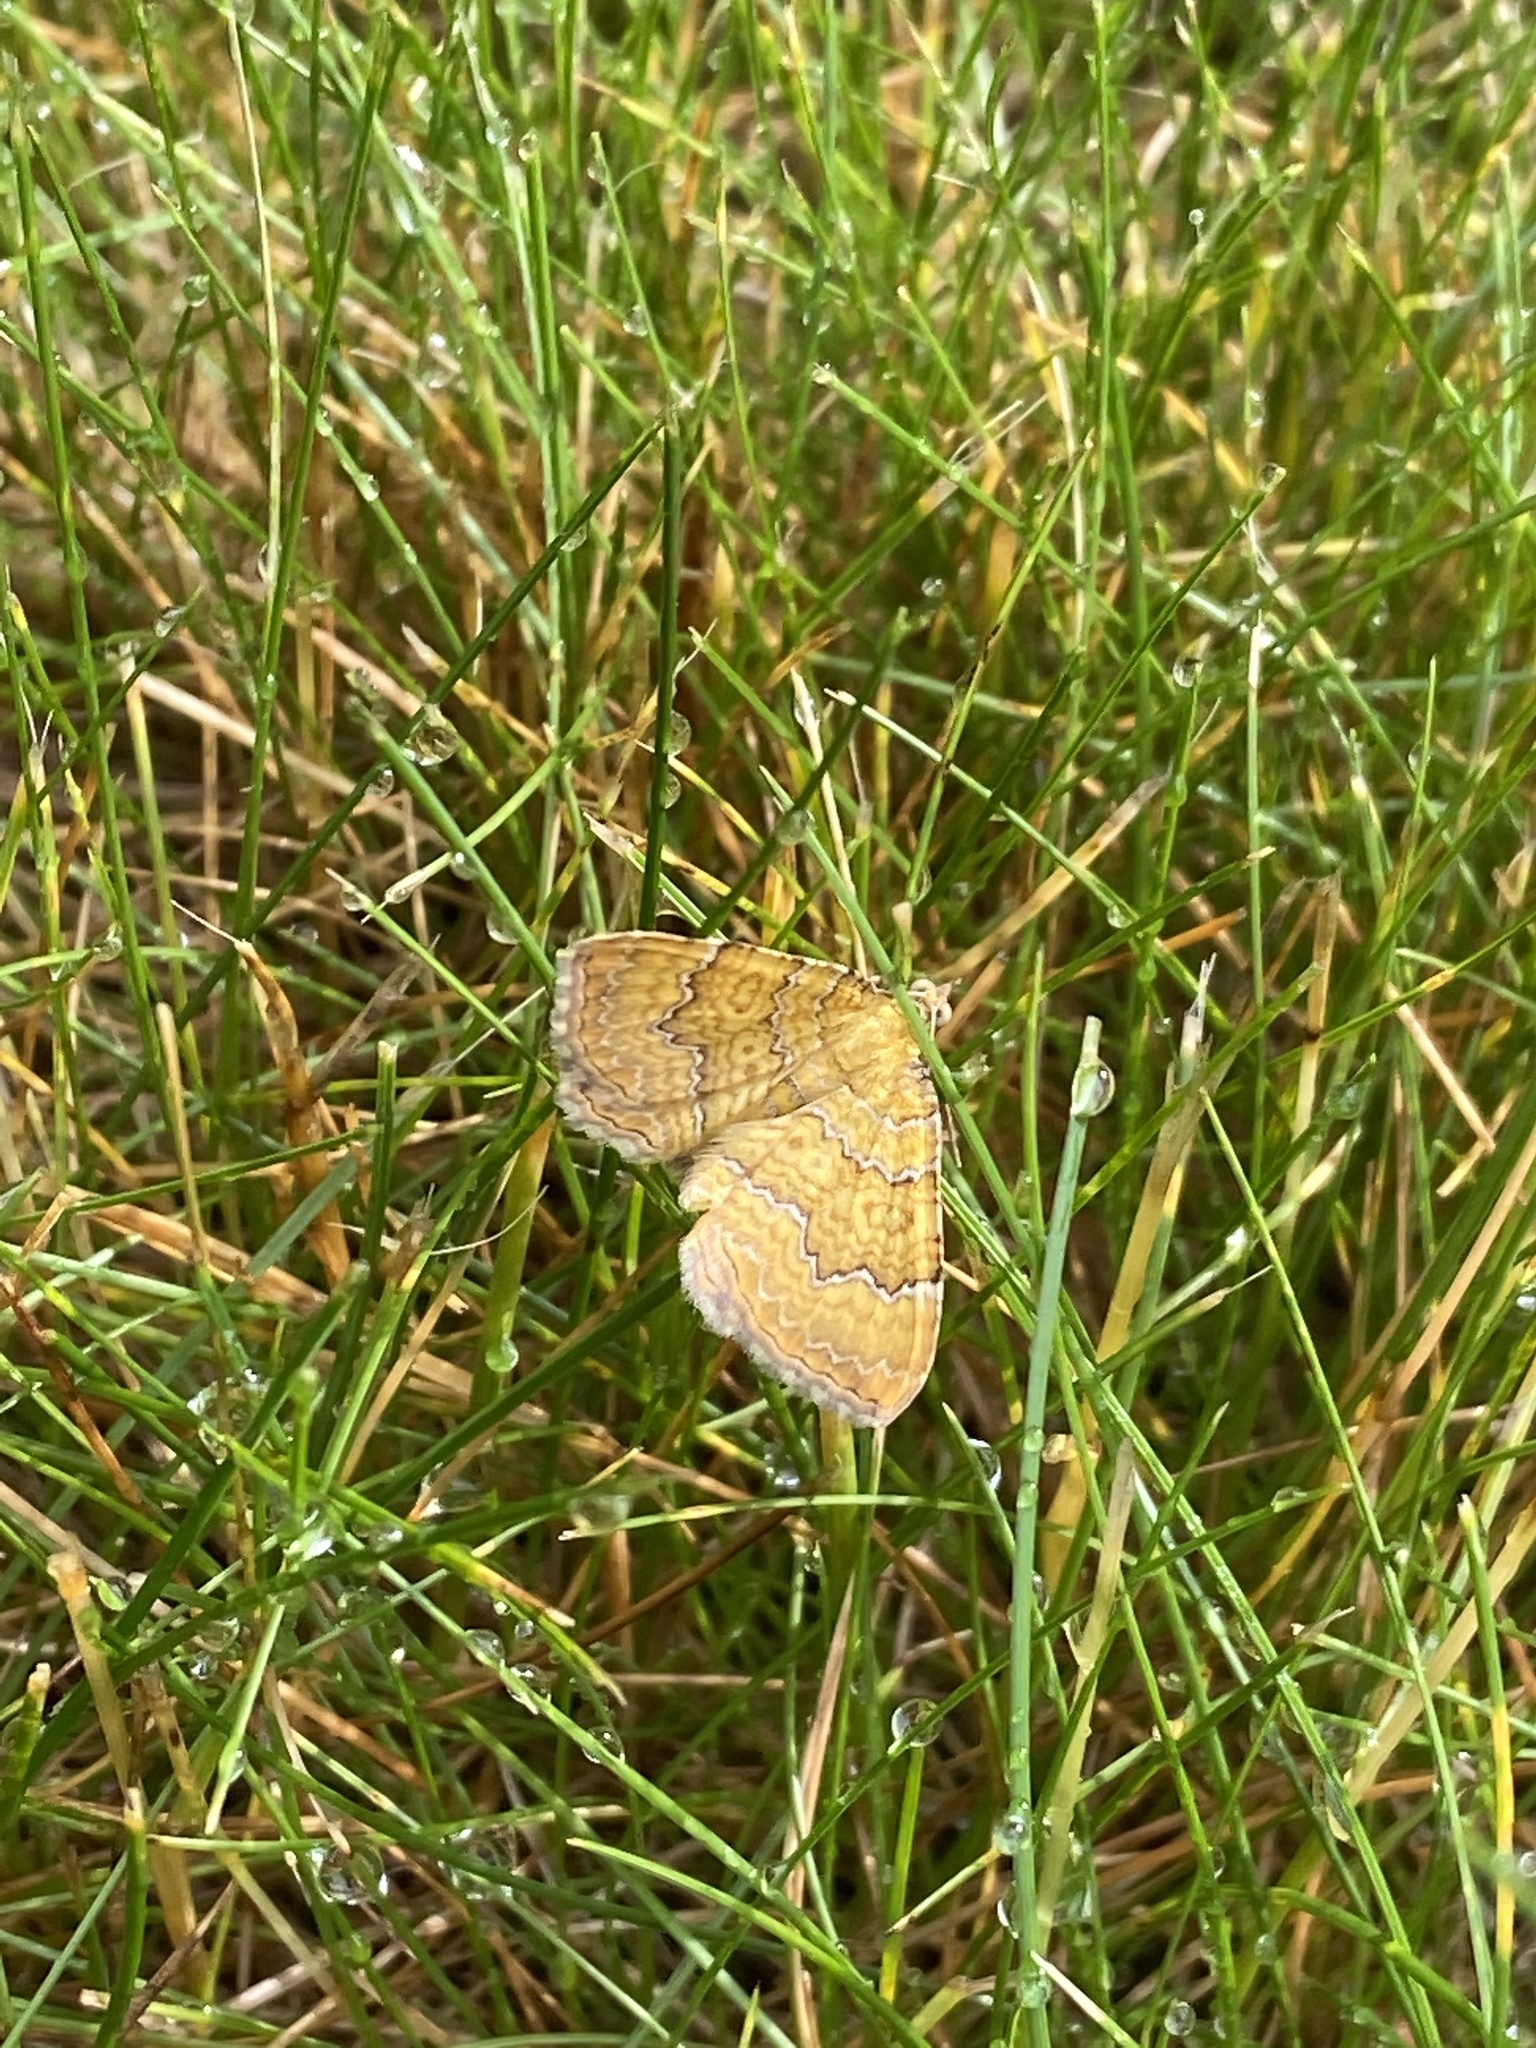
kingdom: Animalia
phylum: Arthropoda
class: Insecta
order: Lepidoptera
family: Geometridae
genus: Camptogramma
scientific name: Camptogramma bilineata
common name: Yellow shell
